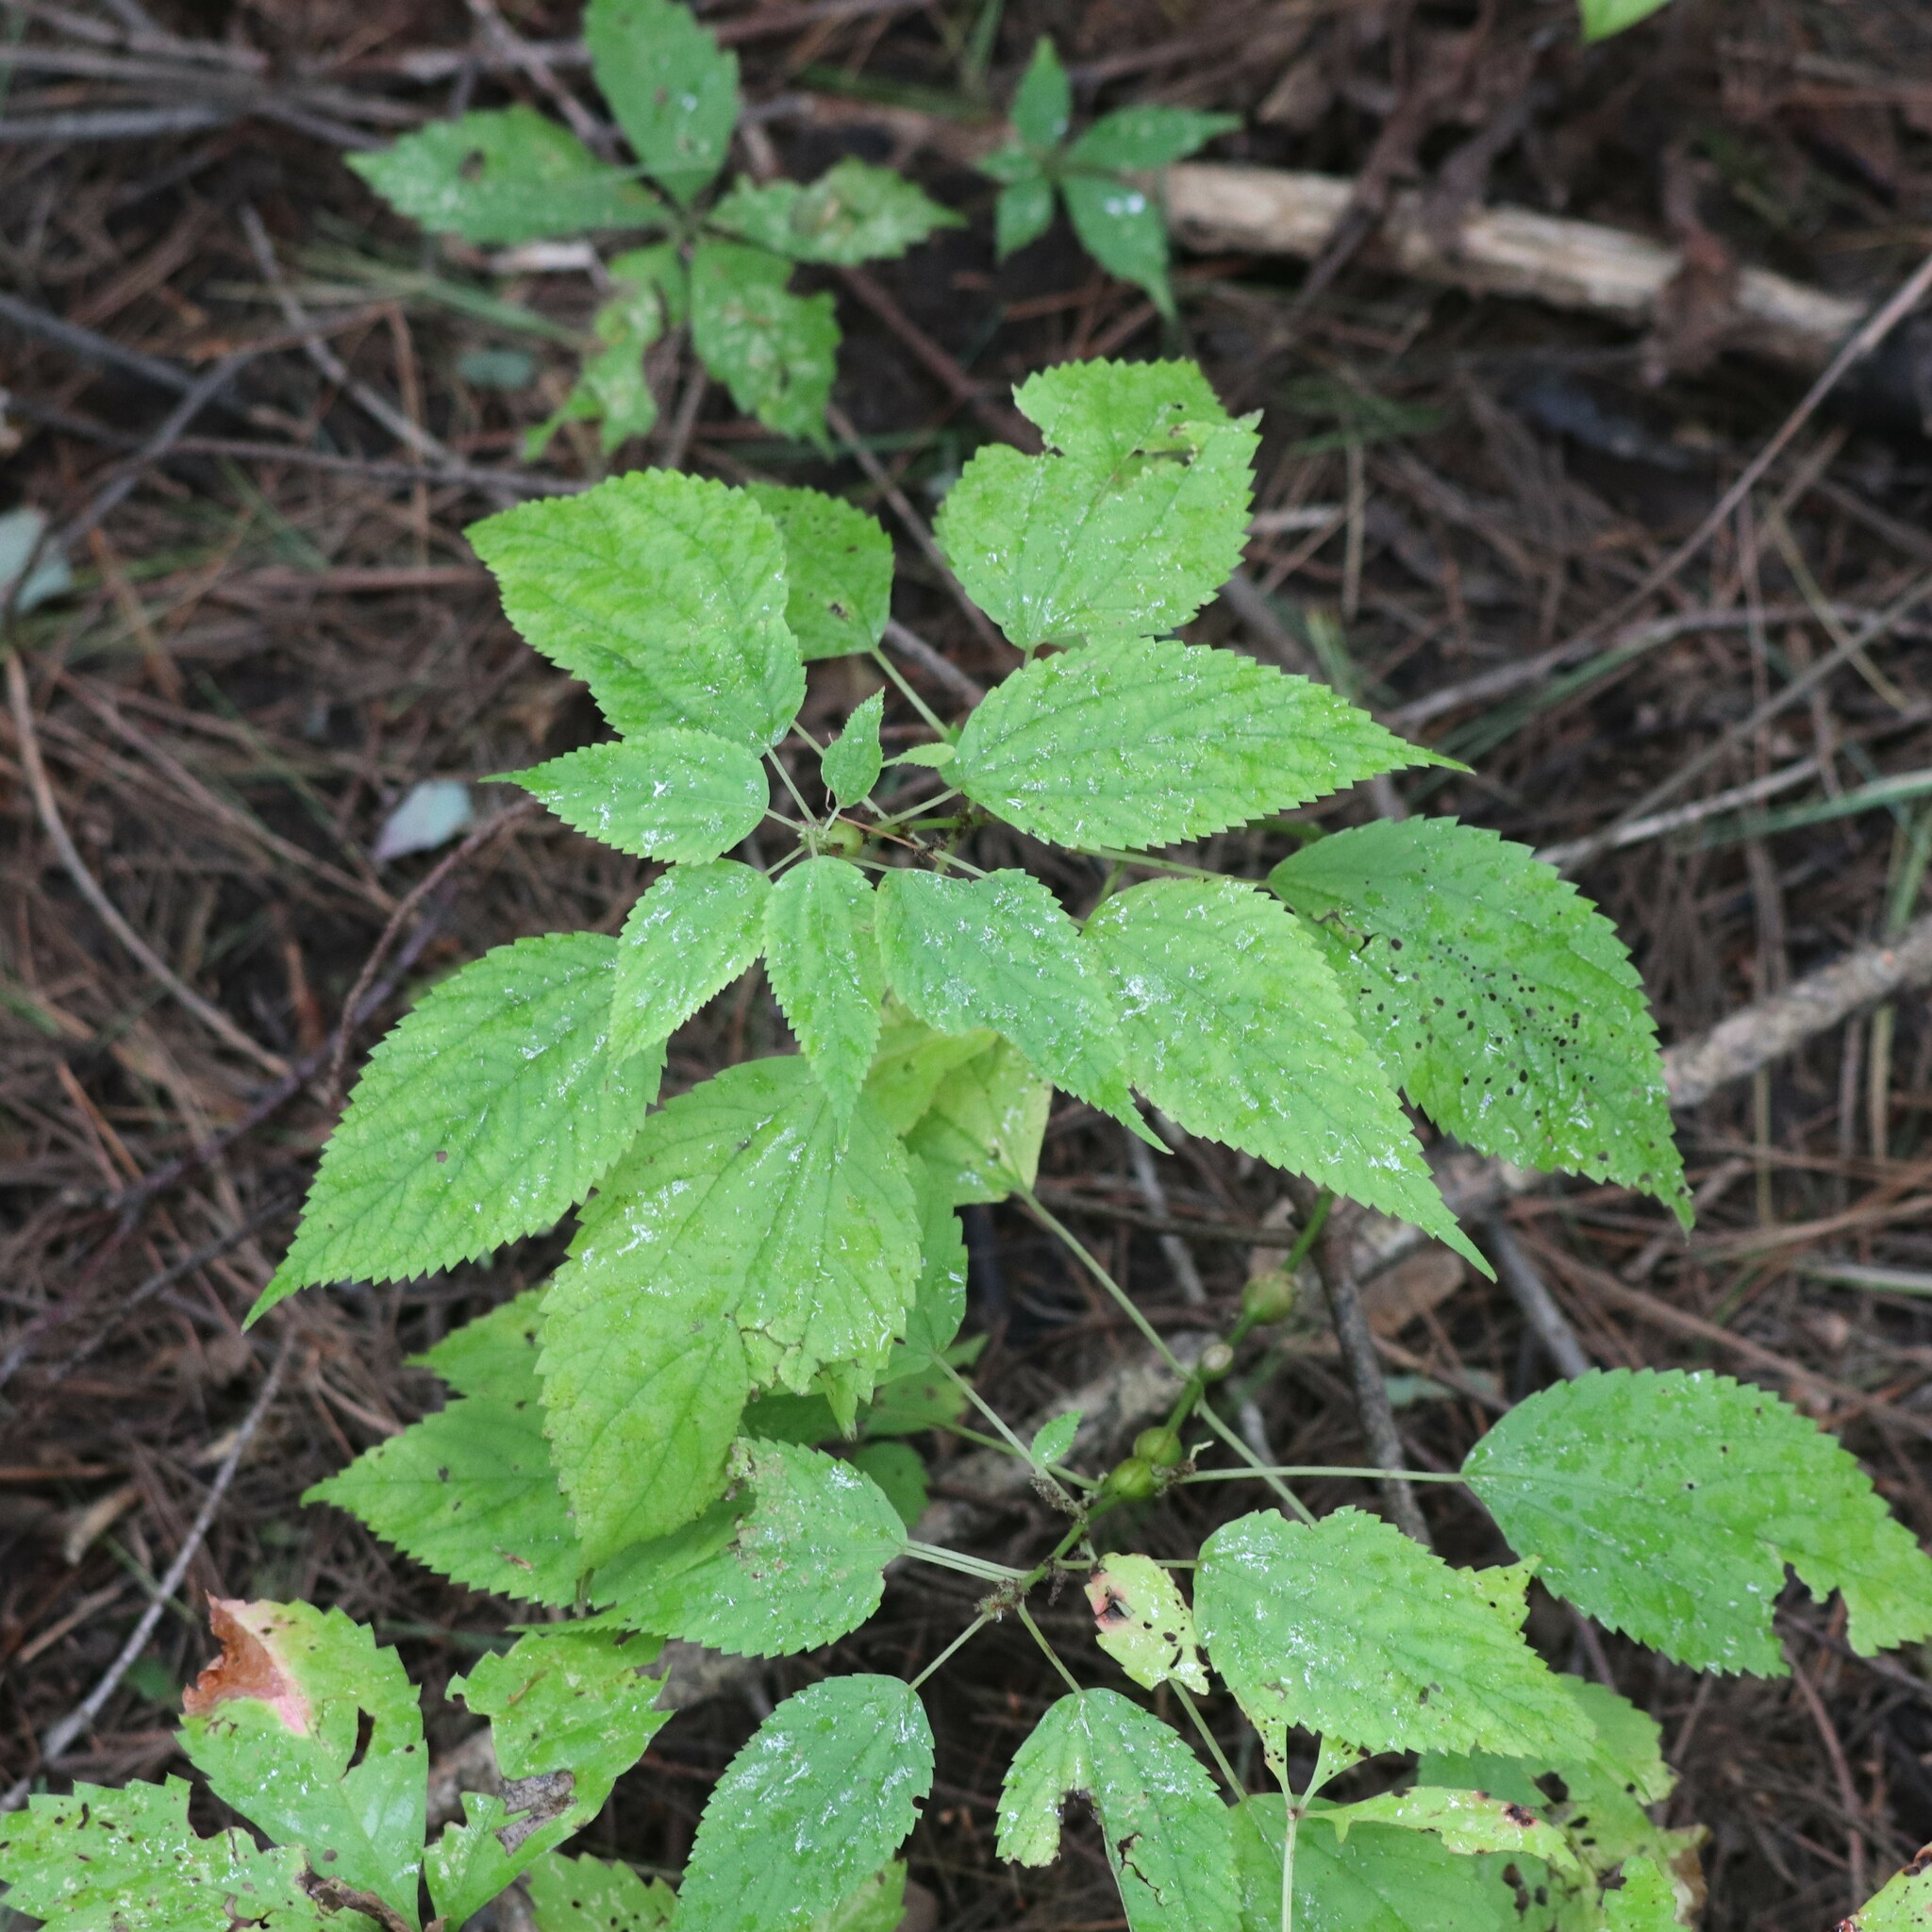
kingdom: Plantae
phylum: Tracheophyta
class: Magnoliopsida
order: Rosales
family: Urticaceae
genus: Boehmeria
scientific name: Boehmeria cylindrica
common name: Bog-hemp
